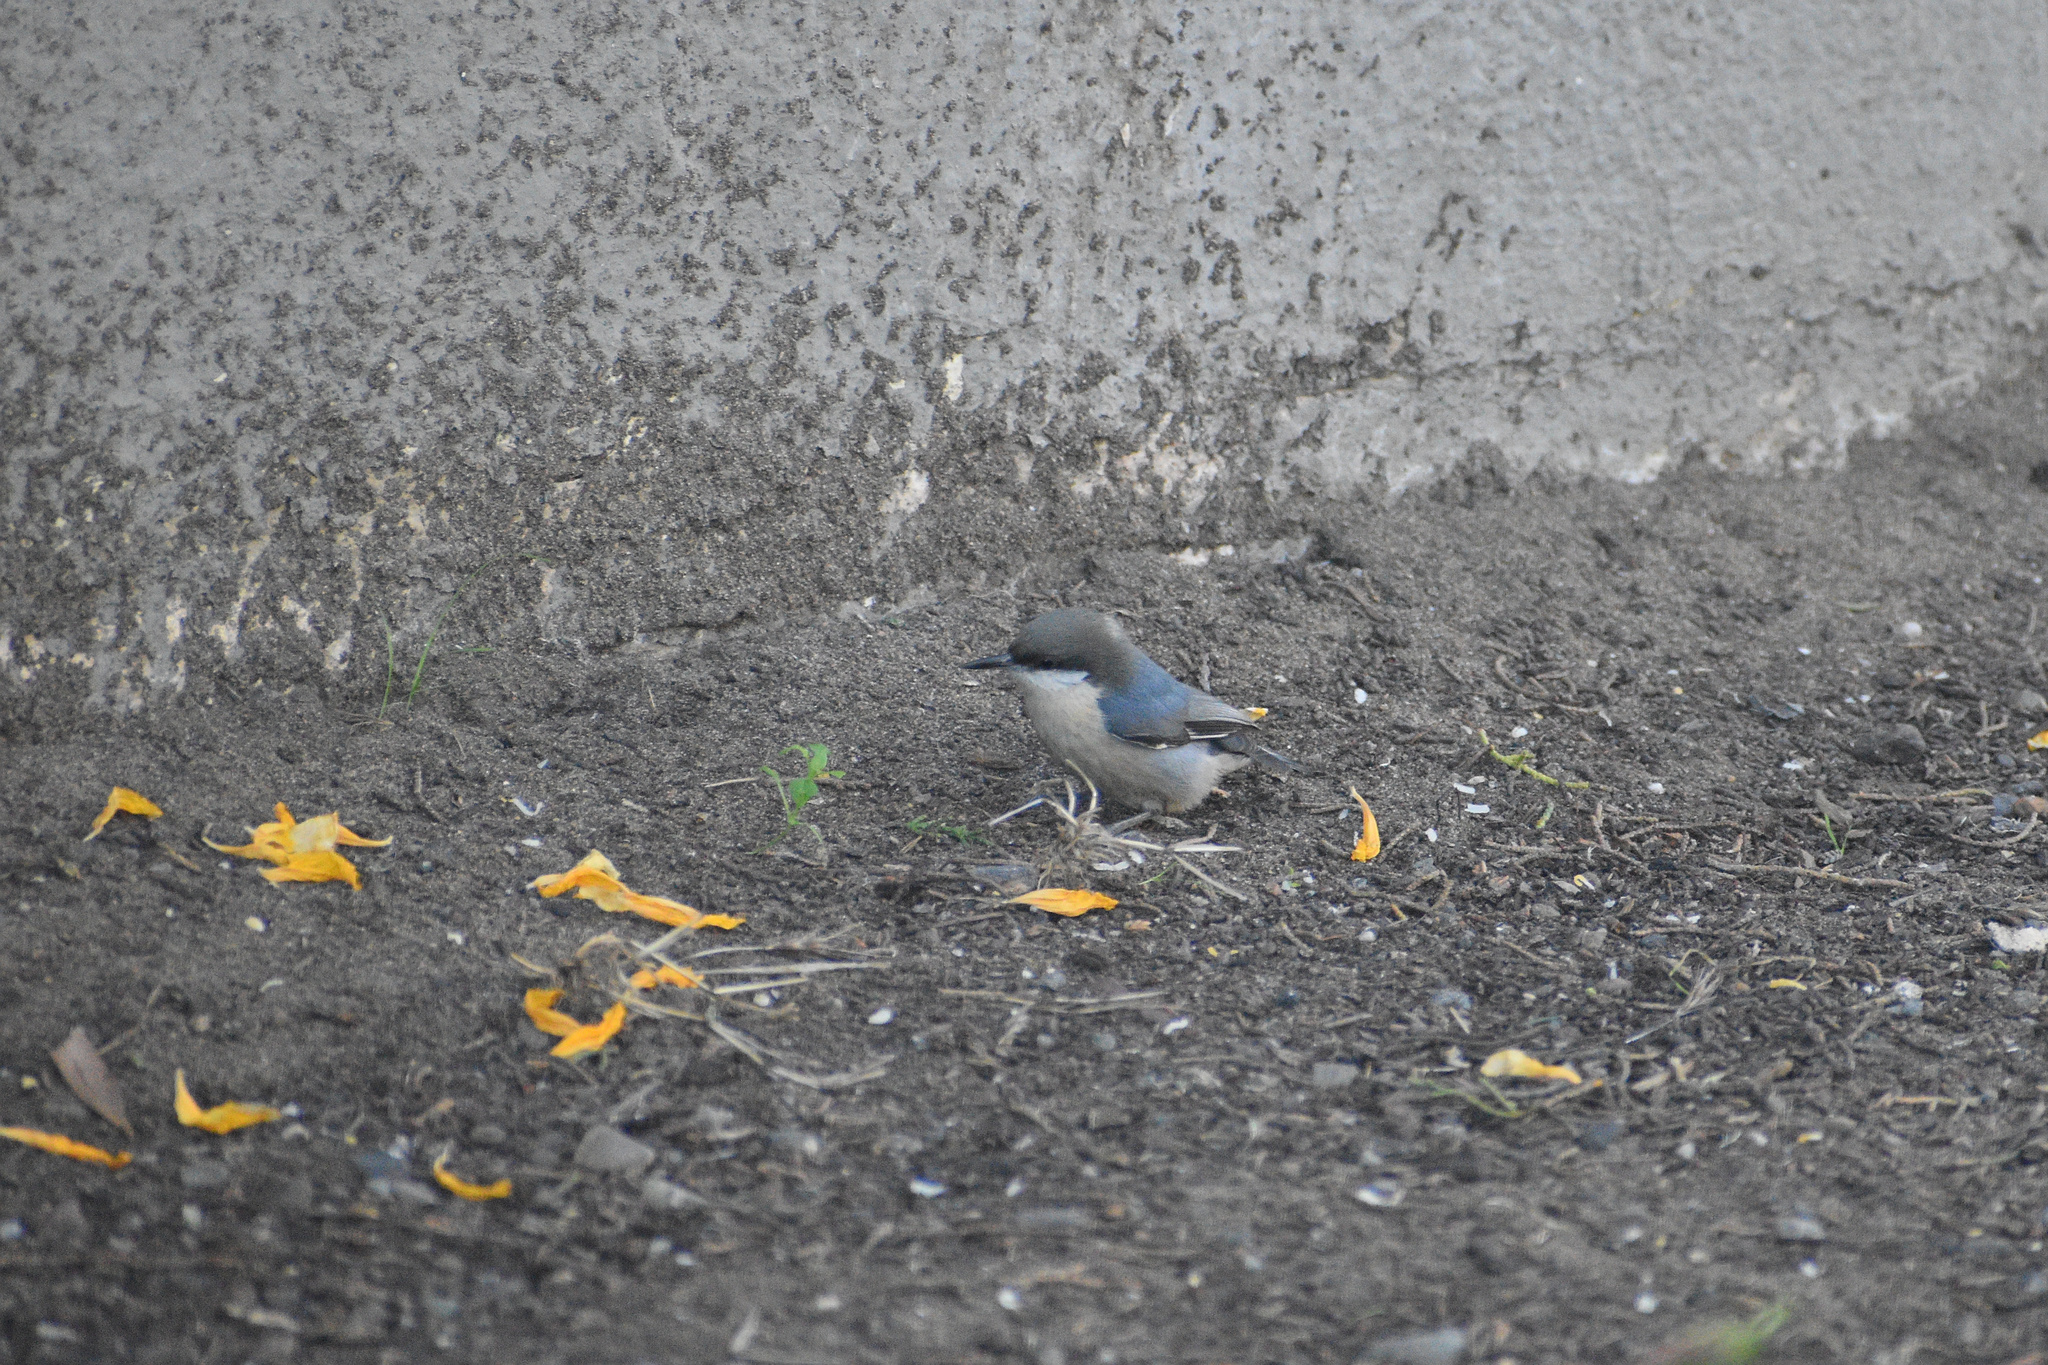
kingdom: Animalia
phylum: Chordata
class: Aves
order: Passeriformes
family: Sittidae
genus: Sitta
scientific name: Sitta pygmaea
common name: Pygmy nuthatch
